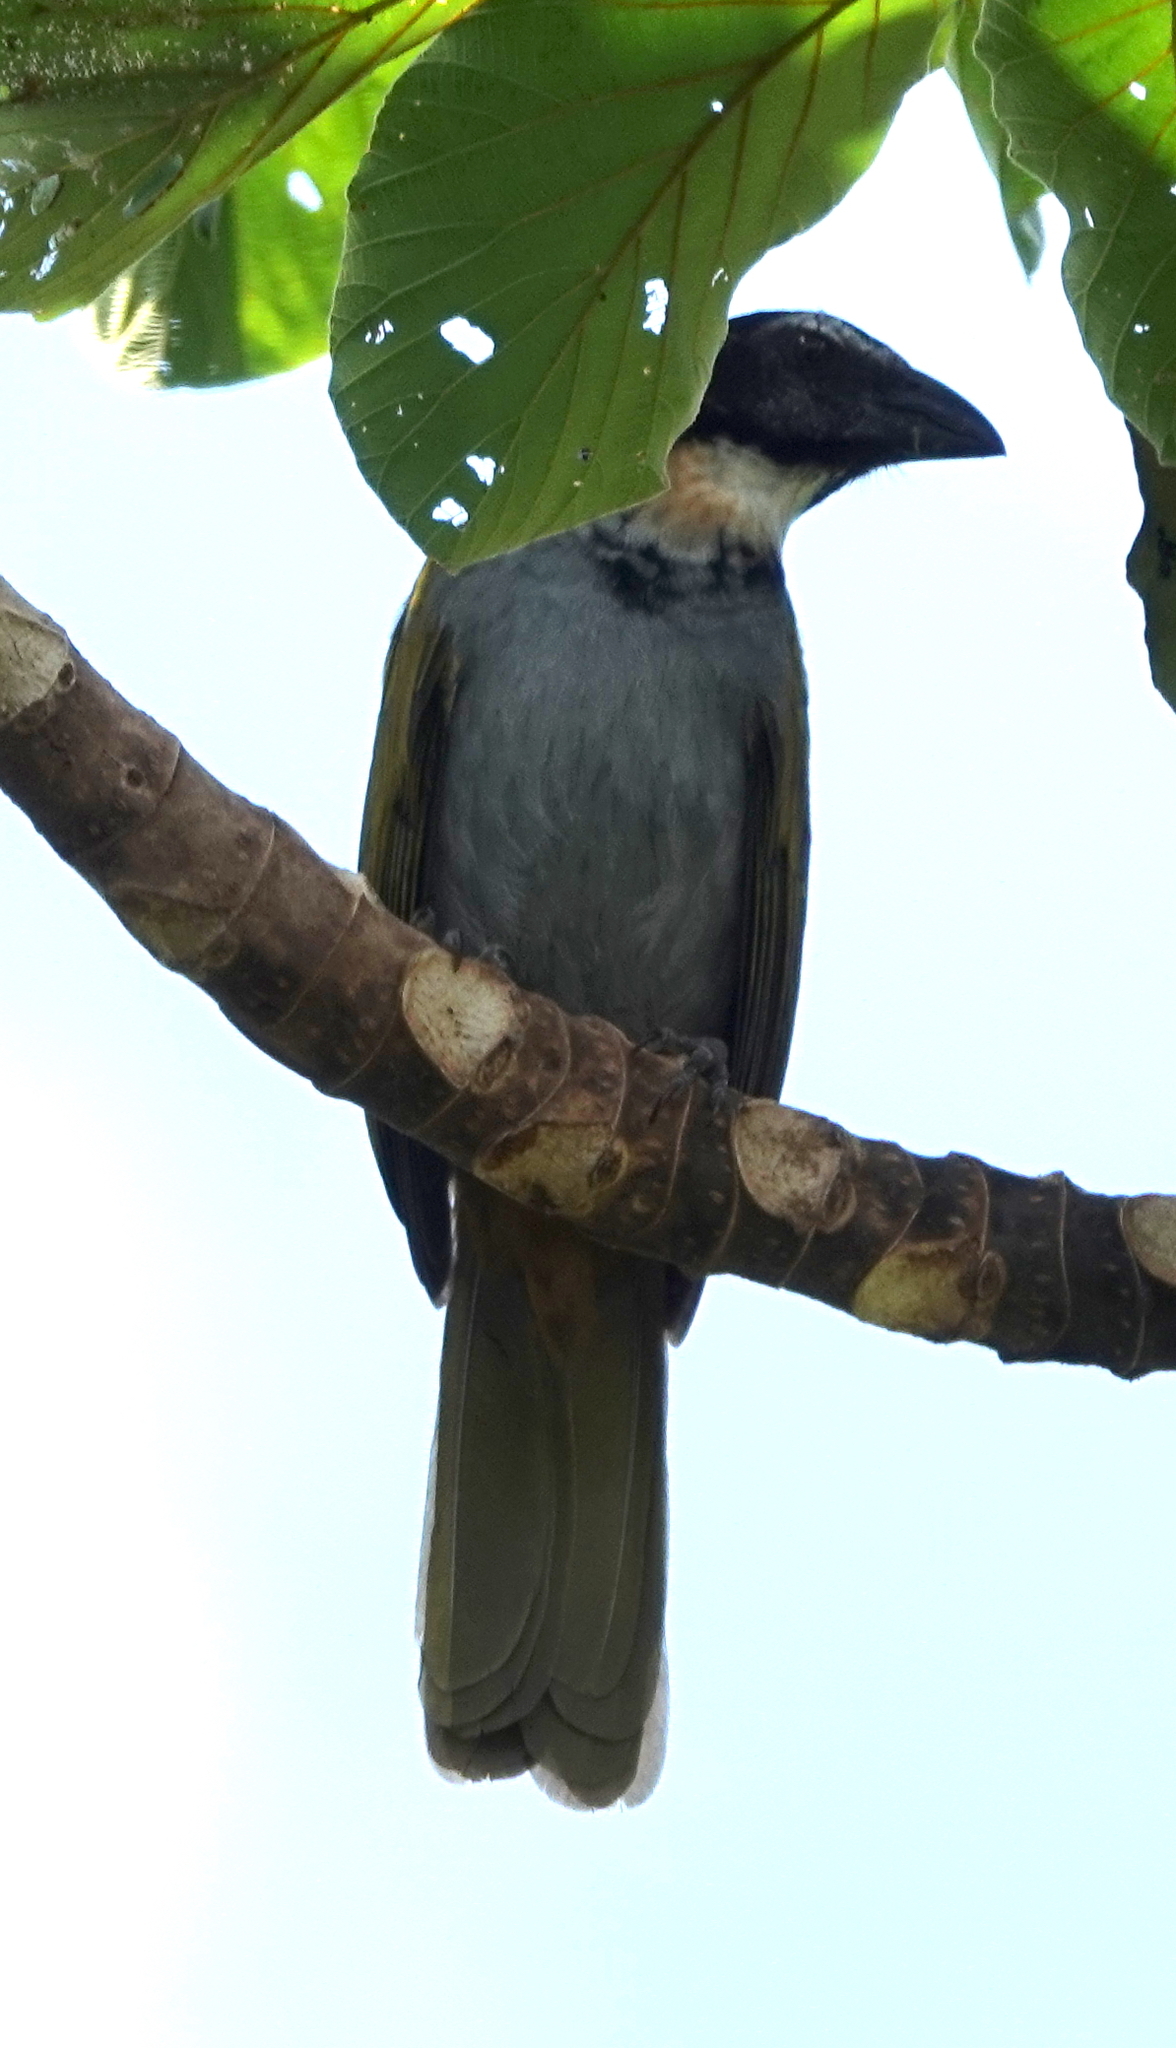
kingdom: Animalia
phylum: Chordata
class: Aves
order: Passeriformes
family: Thraupidae
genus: Saltator
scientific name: Saltator atriceps
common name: Black-headed saltator
